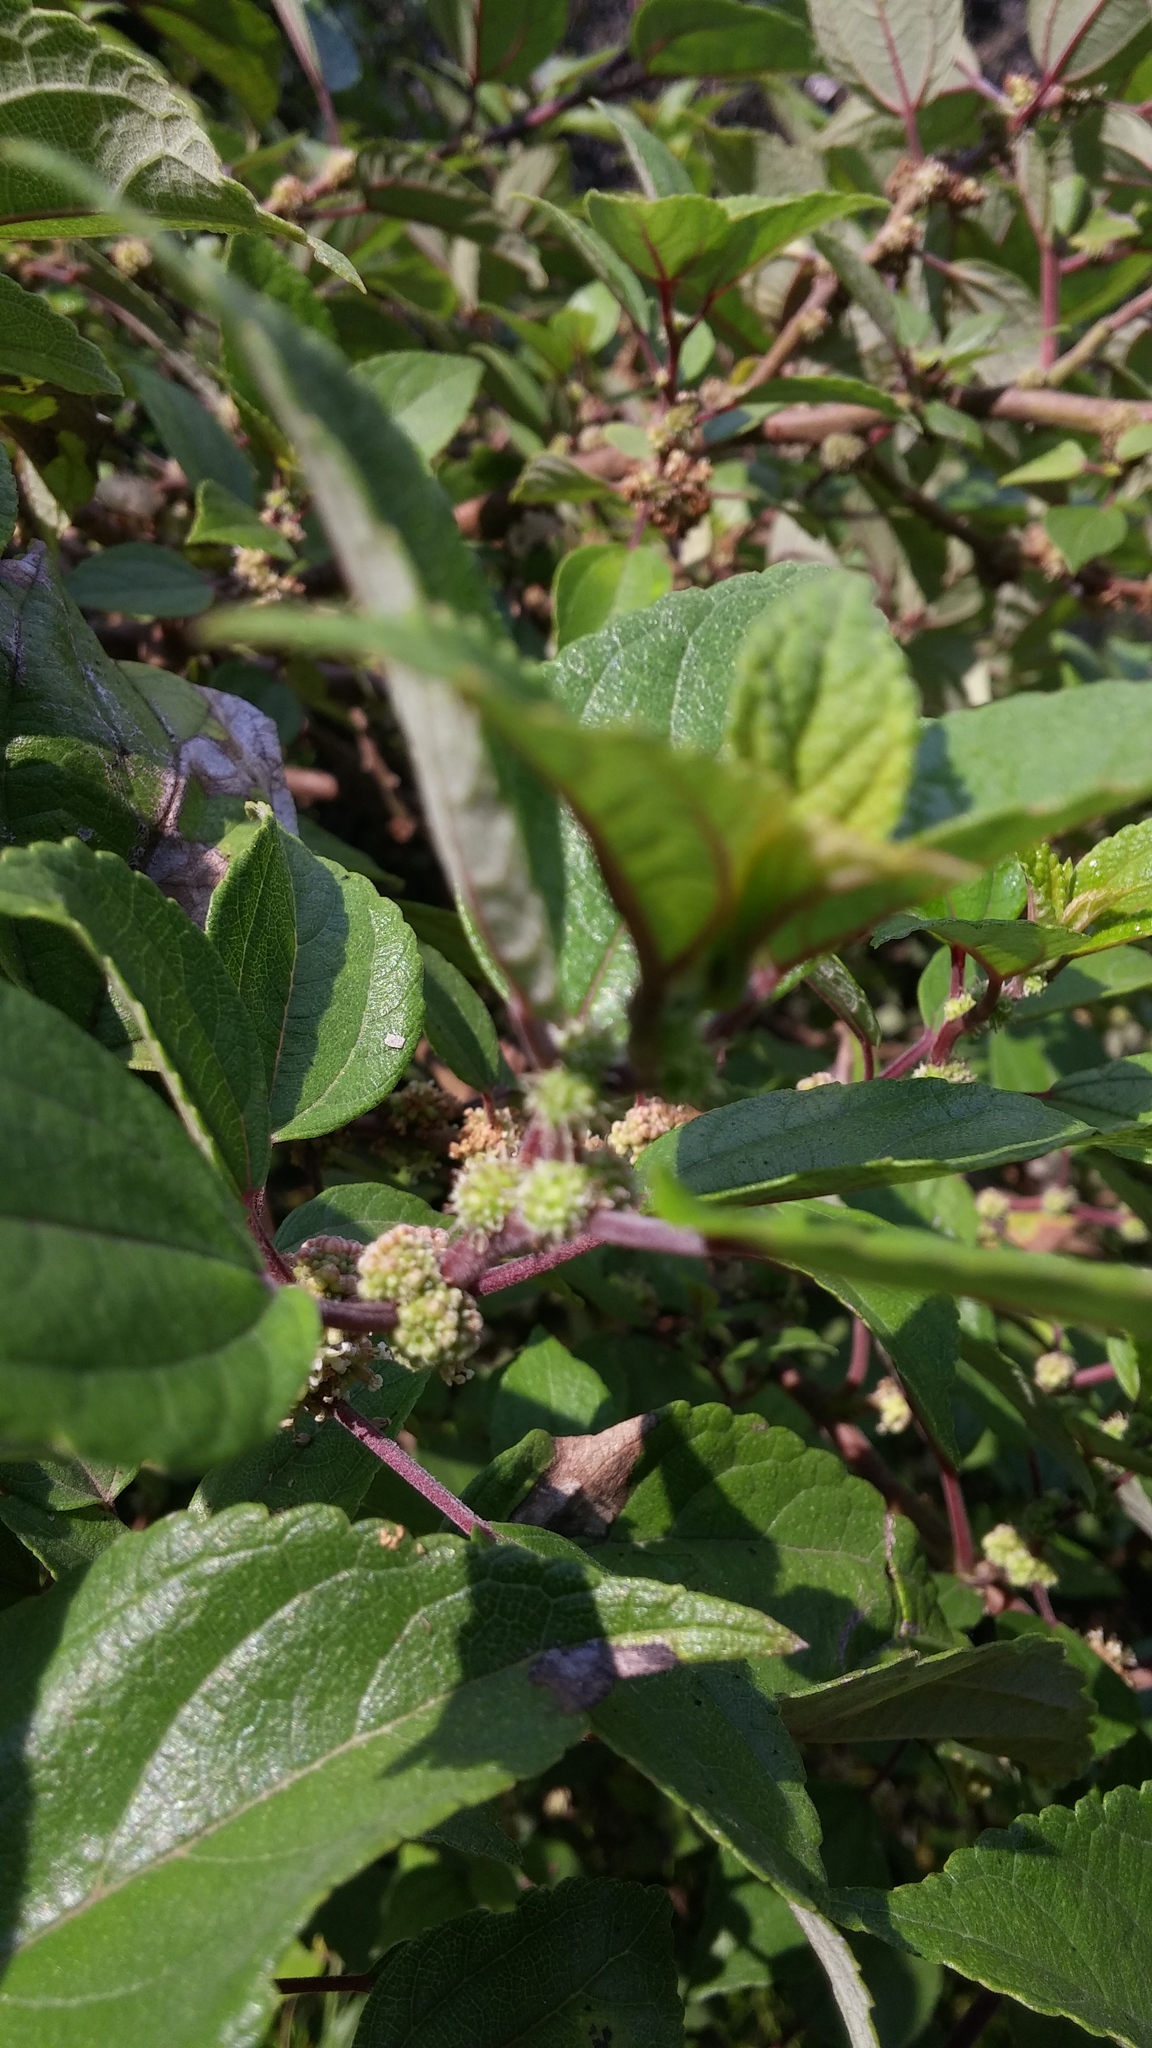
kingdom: Plantae
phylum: Tracheophyta
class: Magnoliopsida
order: Rosales
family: Urticaceae
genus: Pipturus
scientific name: Pipturus albidus
